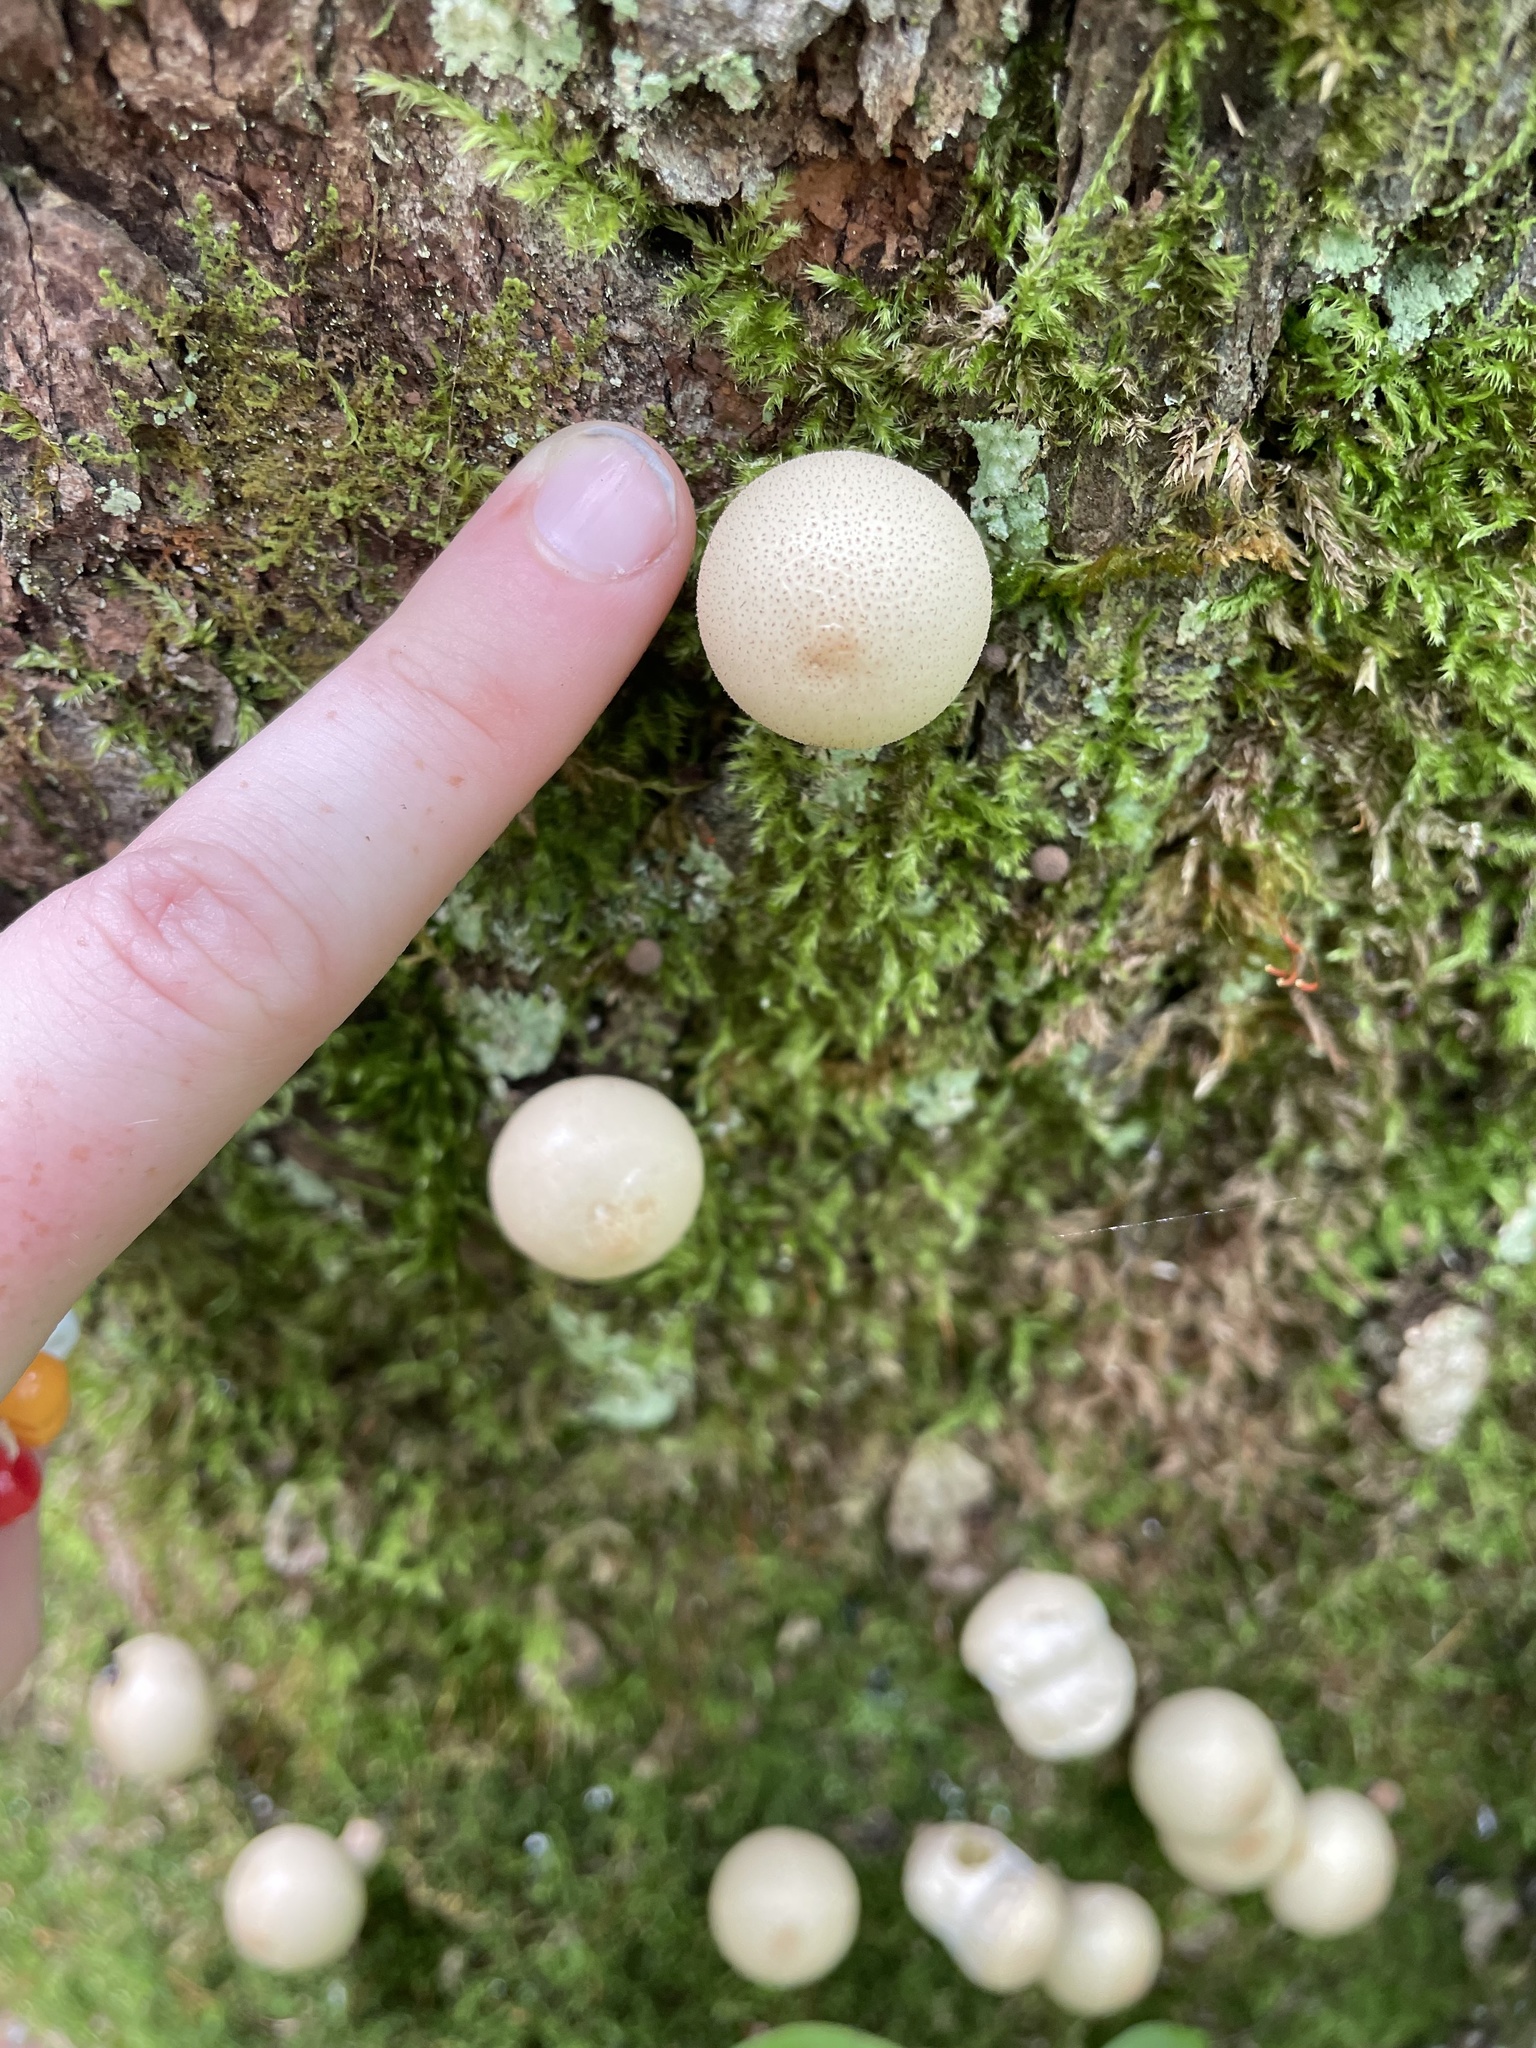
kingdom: Fungi
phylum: Basidiomycota
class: Agaricomycetes
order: Agaricales
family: Lycoperdaceae
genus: Apioperdon
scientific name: Apioperdon pyriforme
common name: Pear-shaped puffball
